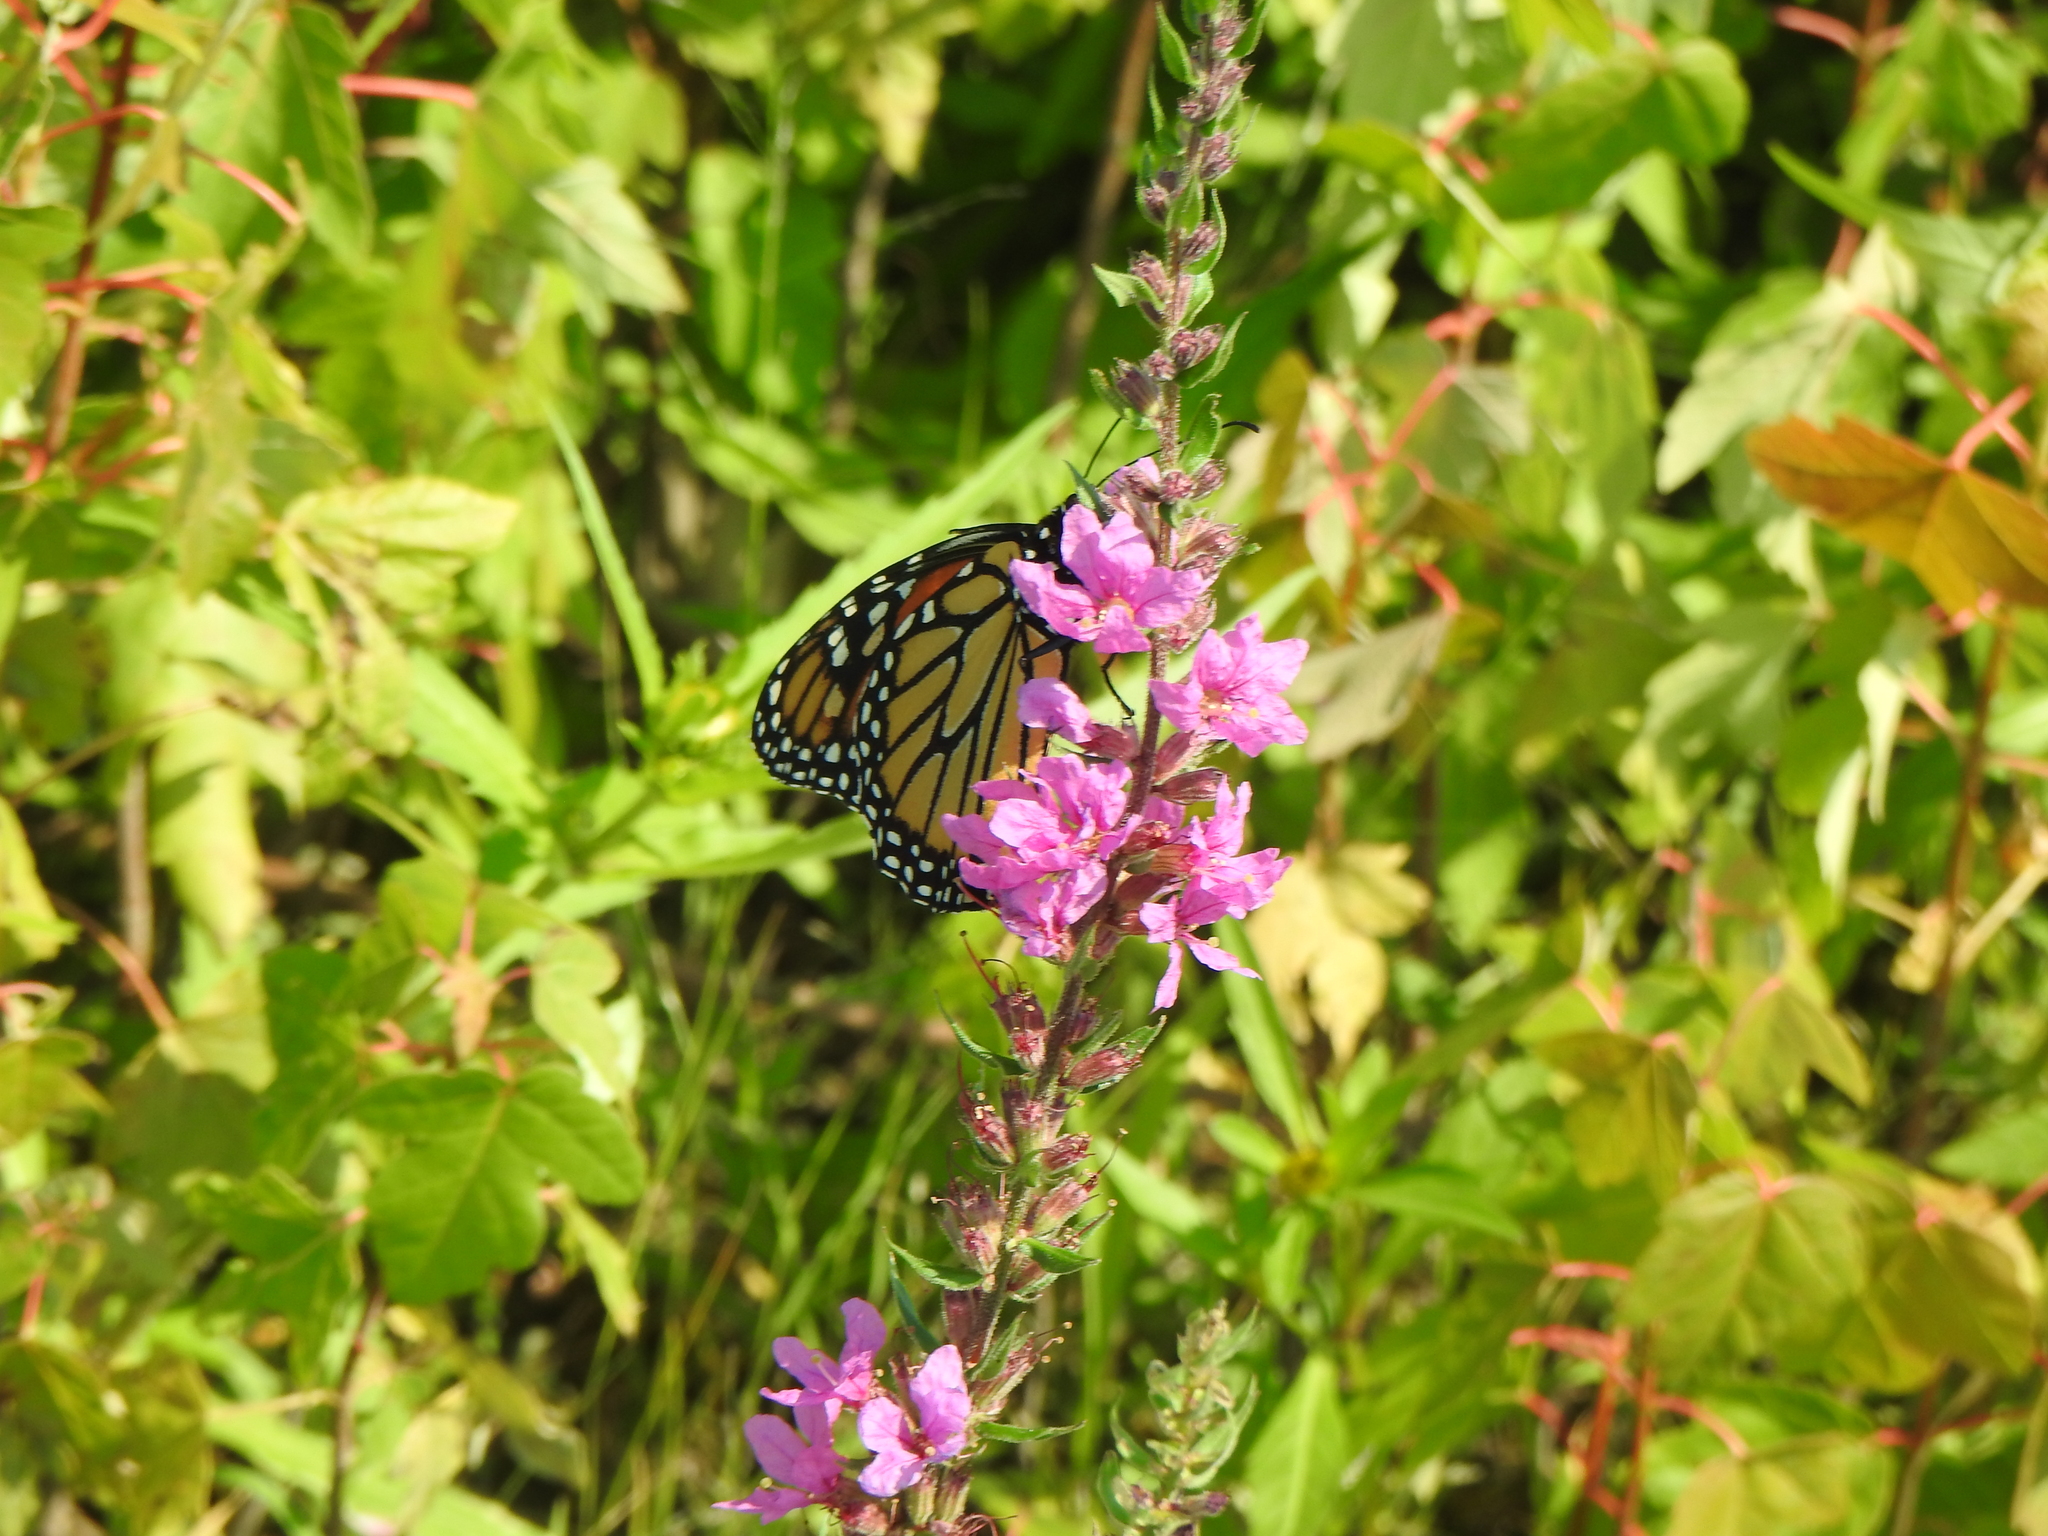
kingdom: Animalia
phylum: Arthropoda
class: Insecta
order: Lepidoptera
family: Nymphalidae
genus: Danaus
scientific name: Danaus plexippus
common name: Monarch
